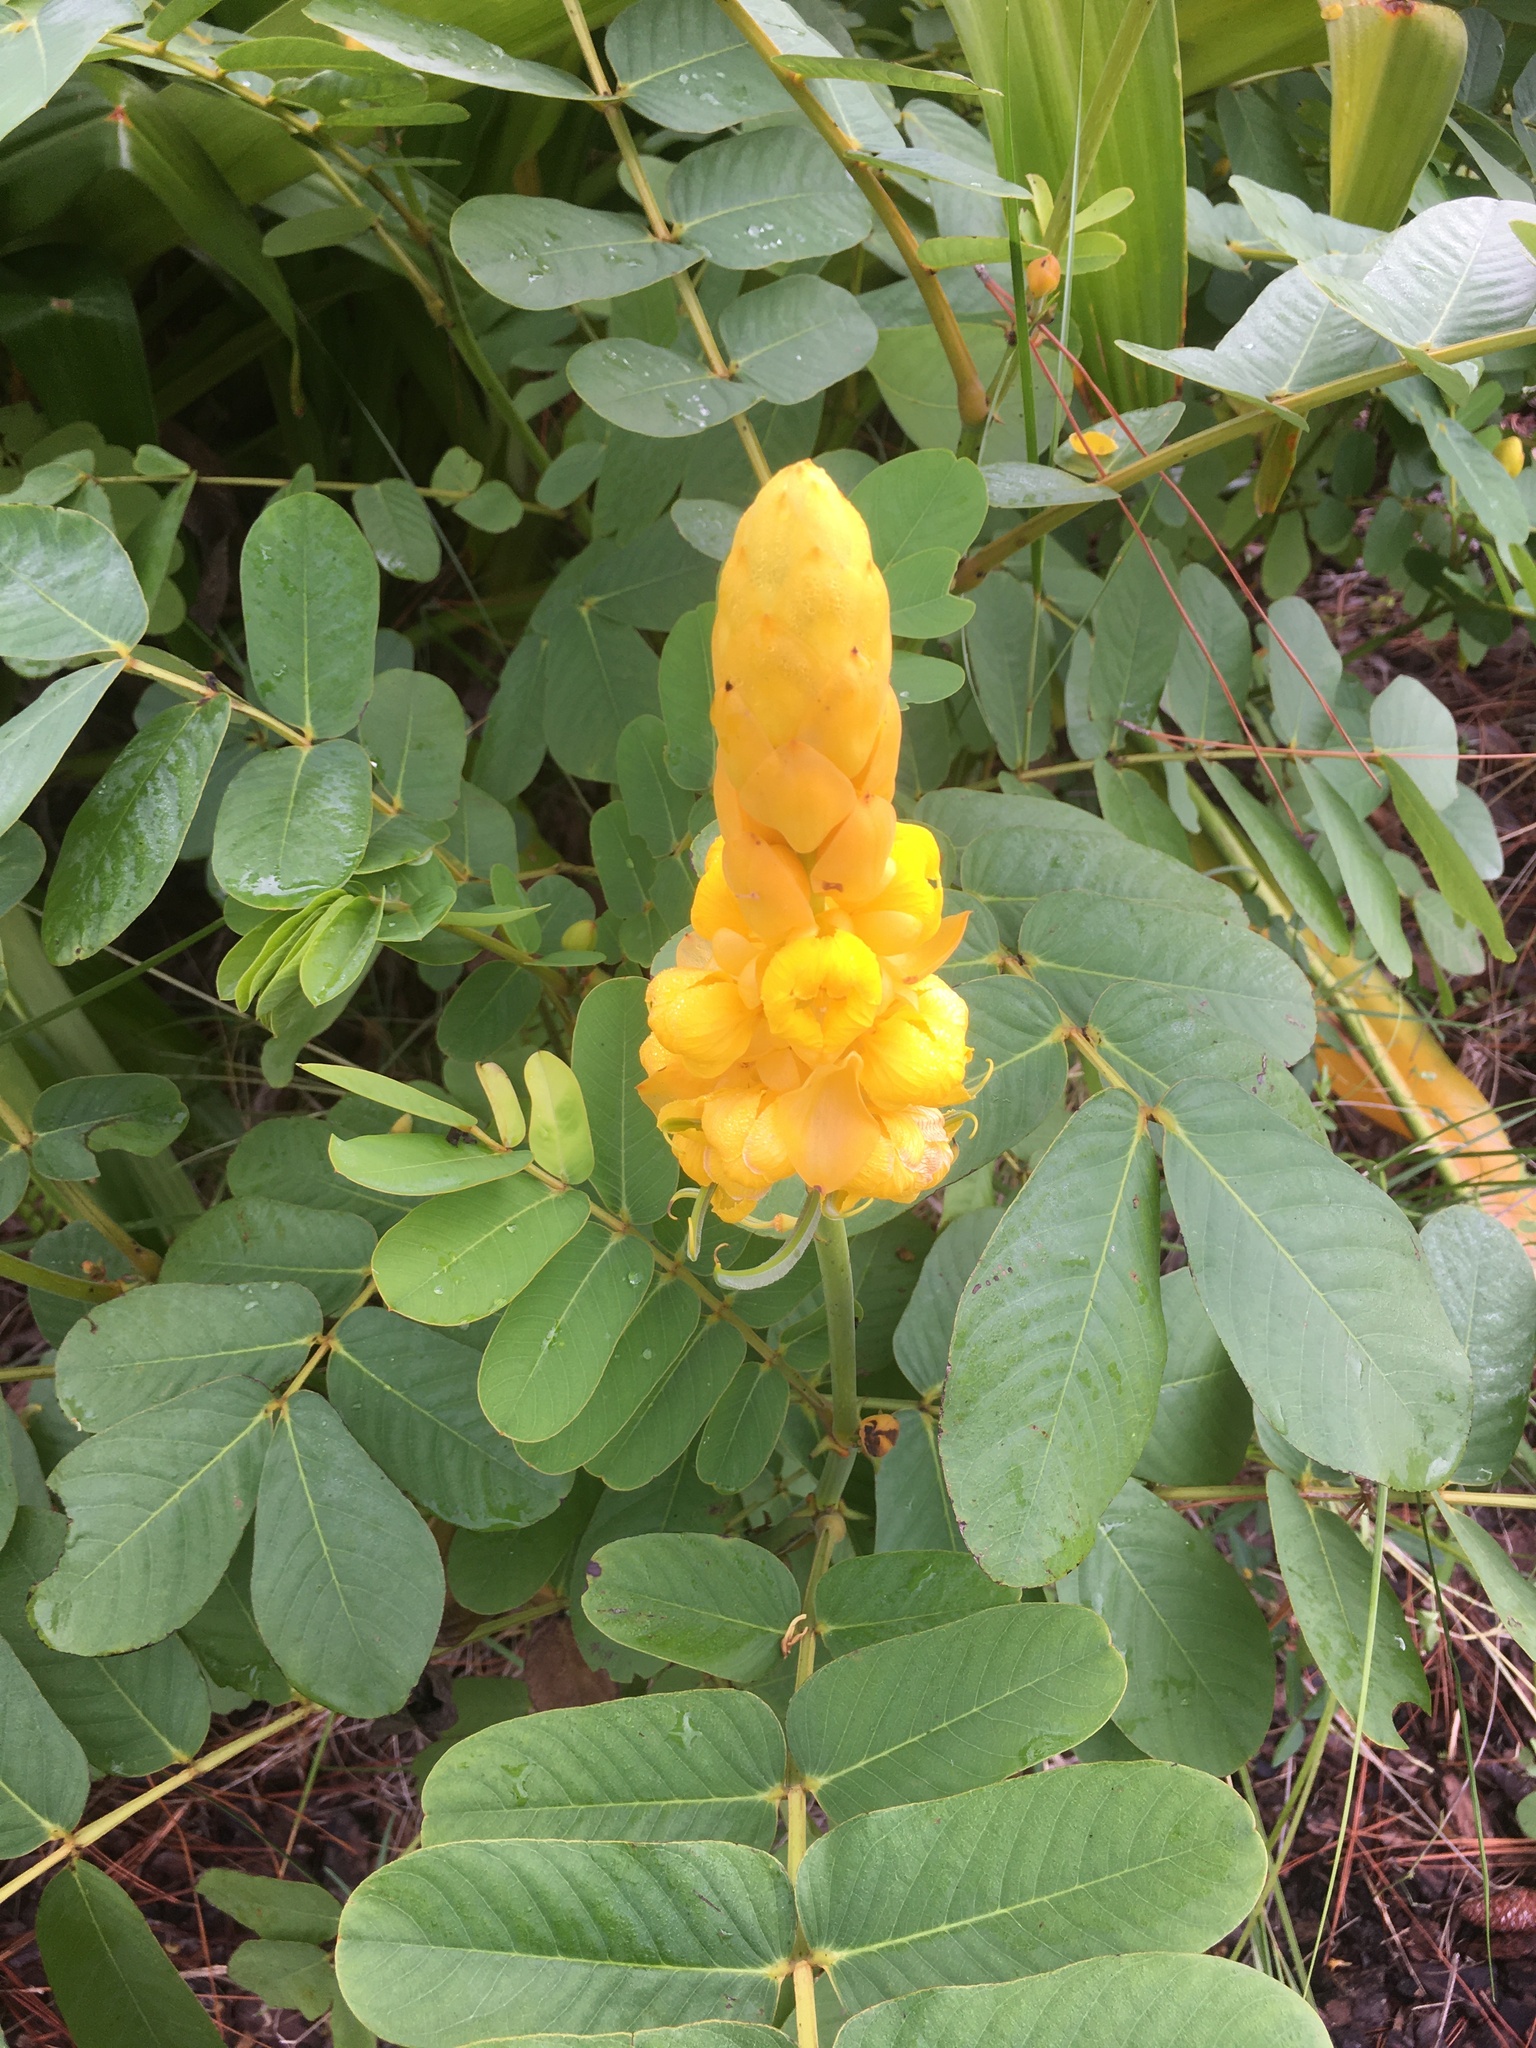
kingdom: Plantae
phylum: Tracheophyta
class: Magnoliopsida
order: Fabales
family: Fabaceae
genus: Senna
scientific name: Senna alata
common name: Emperor's candlesticks
